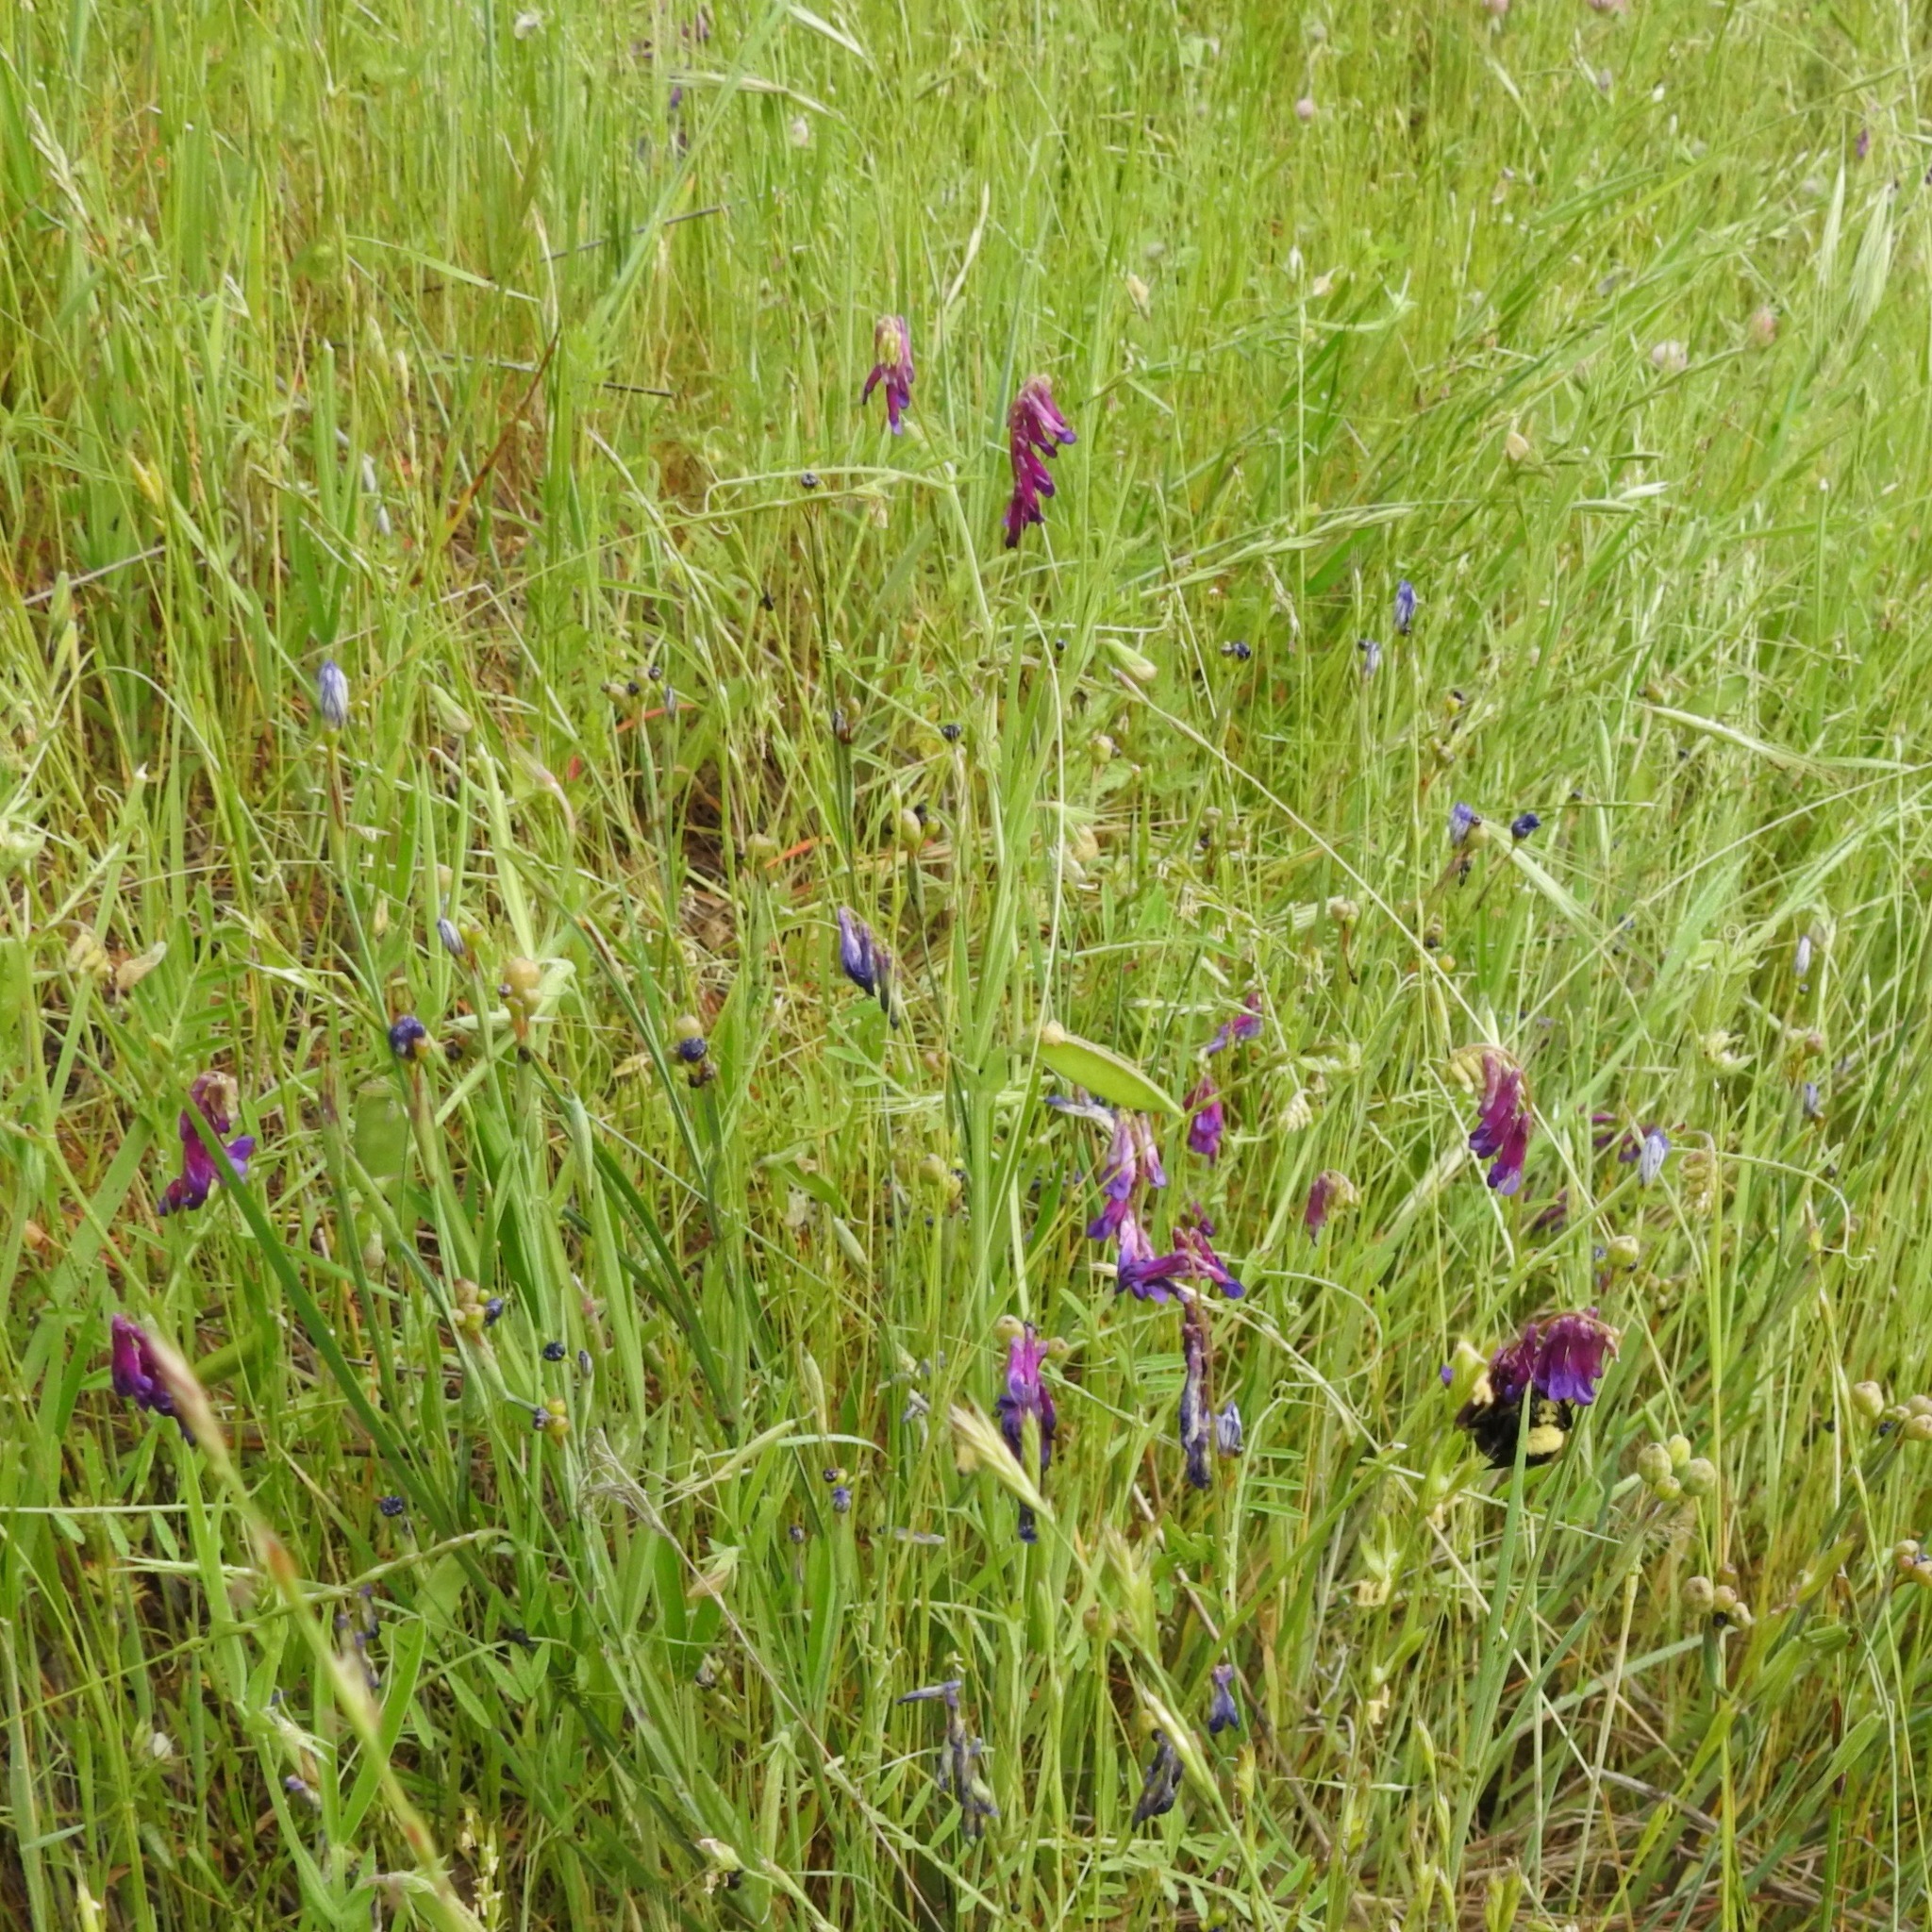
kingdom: Plantae
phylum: Tracheophyta
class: Magnoliopsida
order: Fabales
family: Fabaceae
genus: Vicia
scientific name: Vicia villosa
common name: Fodder vetch
